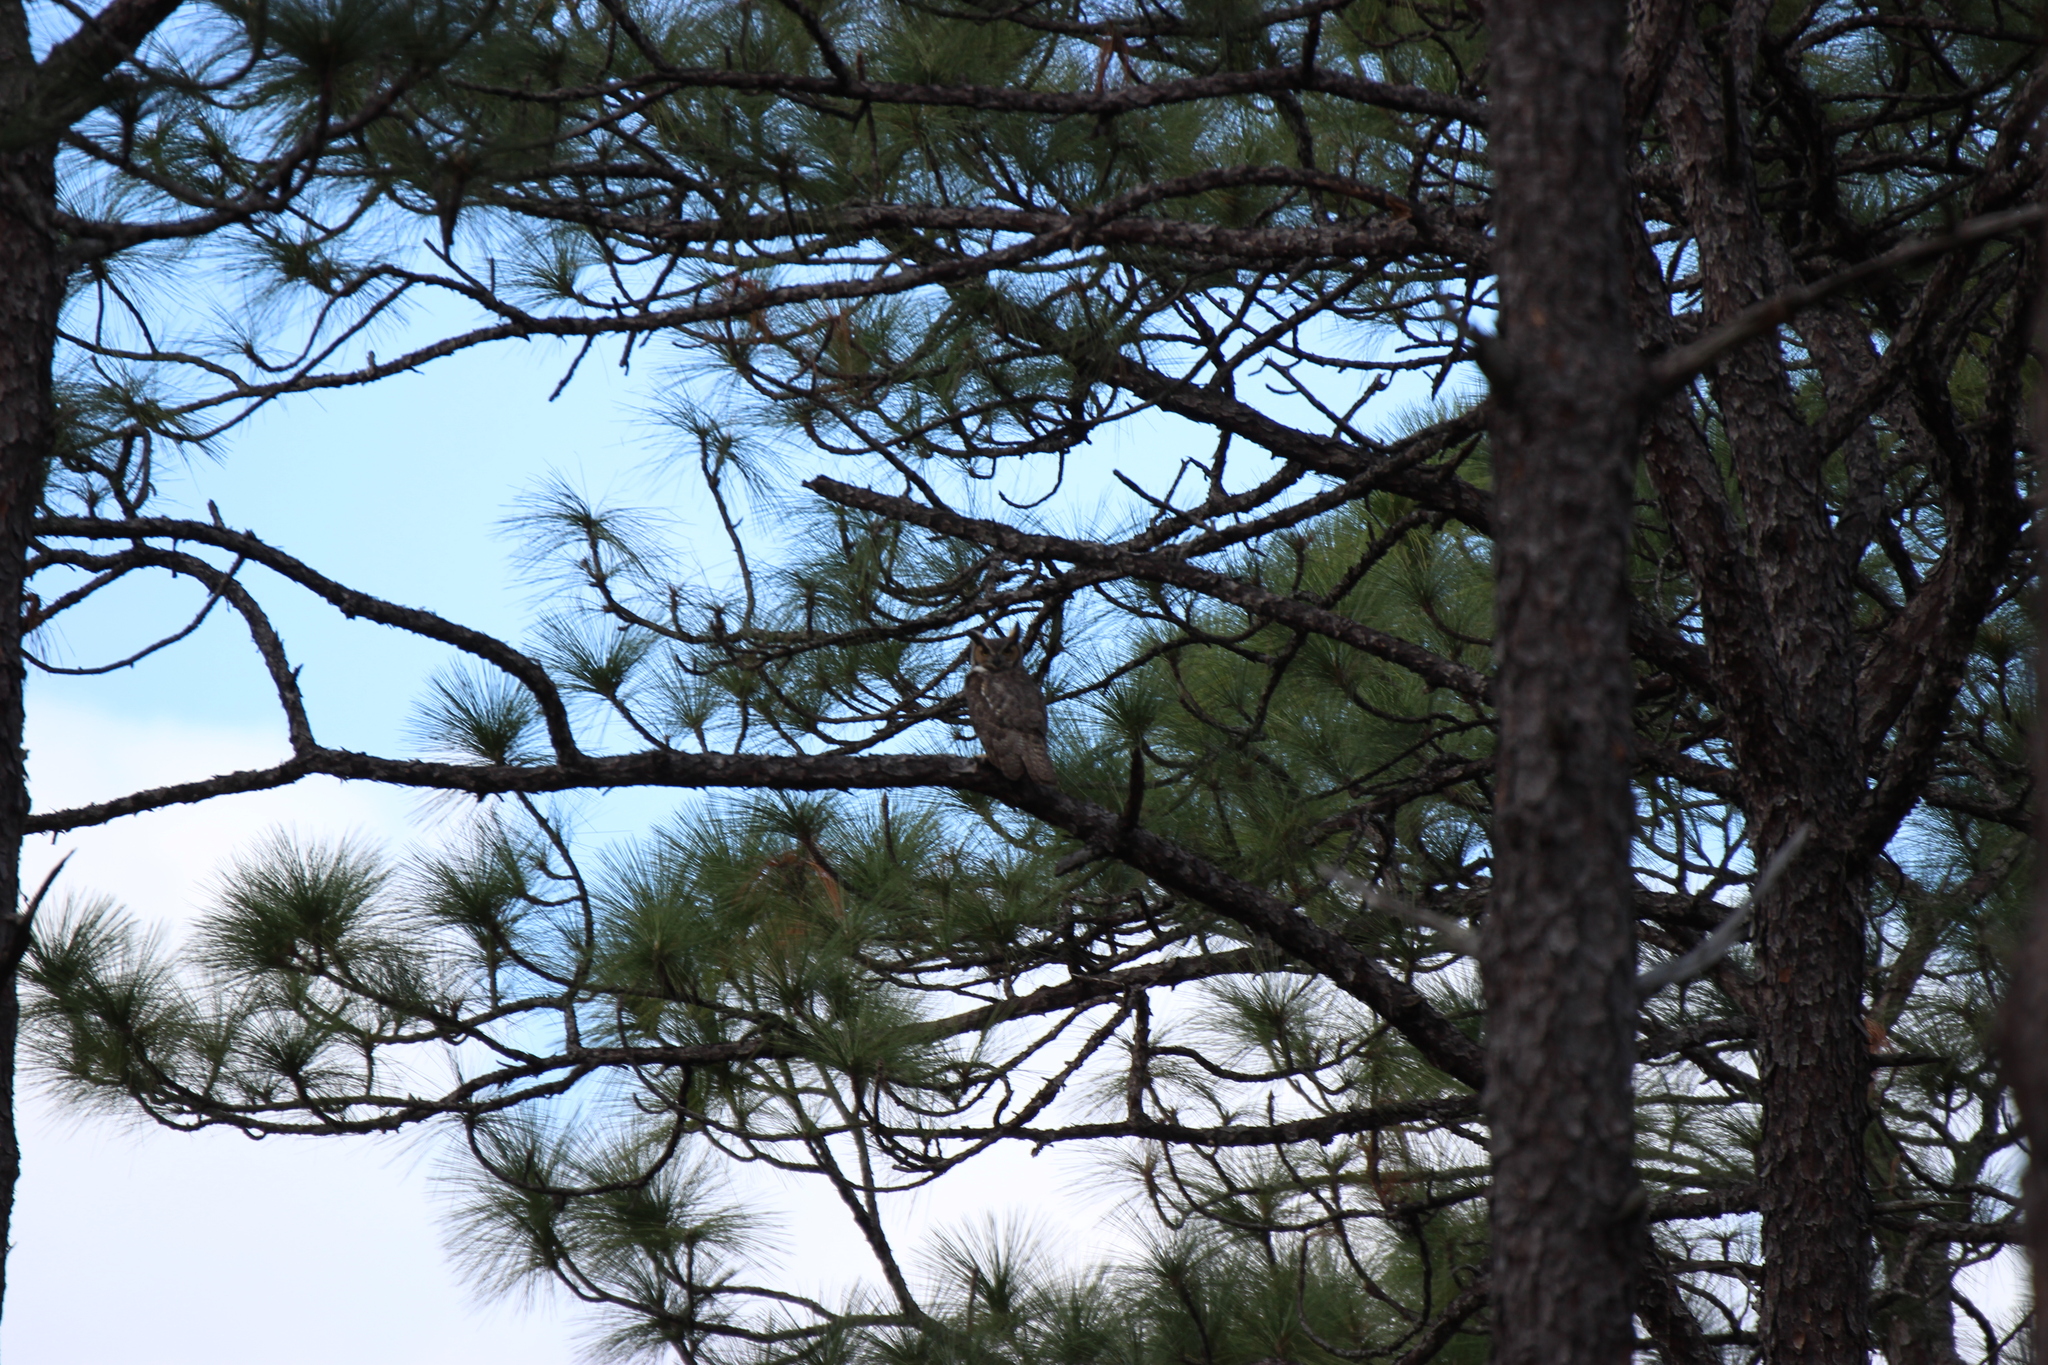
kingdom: Animalia
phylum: Chordata
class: Aves
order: Strigiformes
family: Strigidae
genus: Bubo
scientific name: Bubo virginianus
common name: Great horned owl
